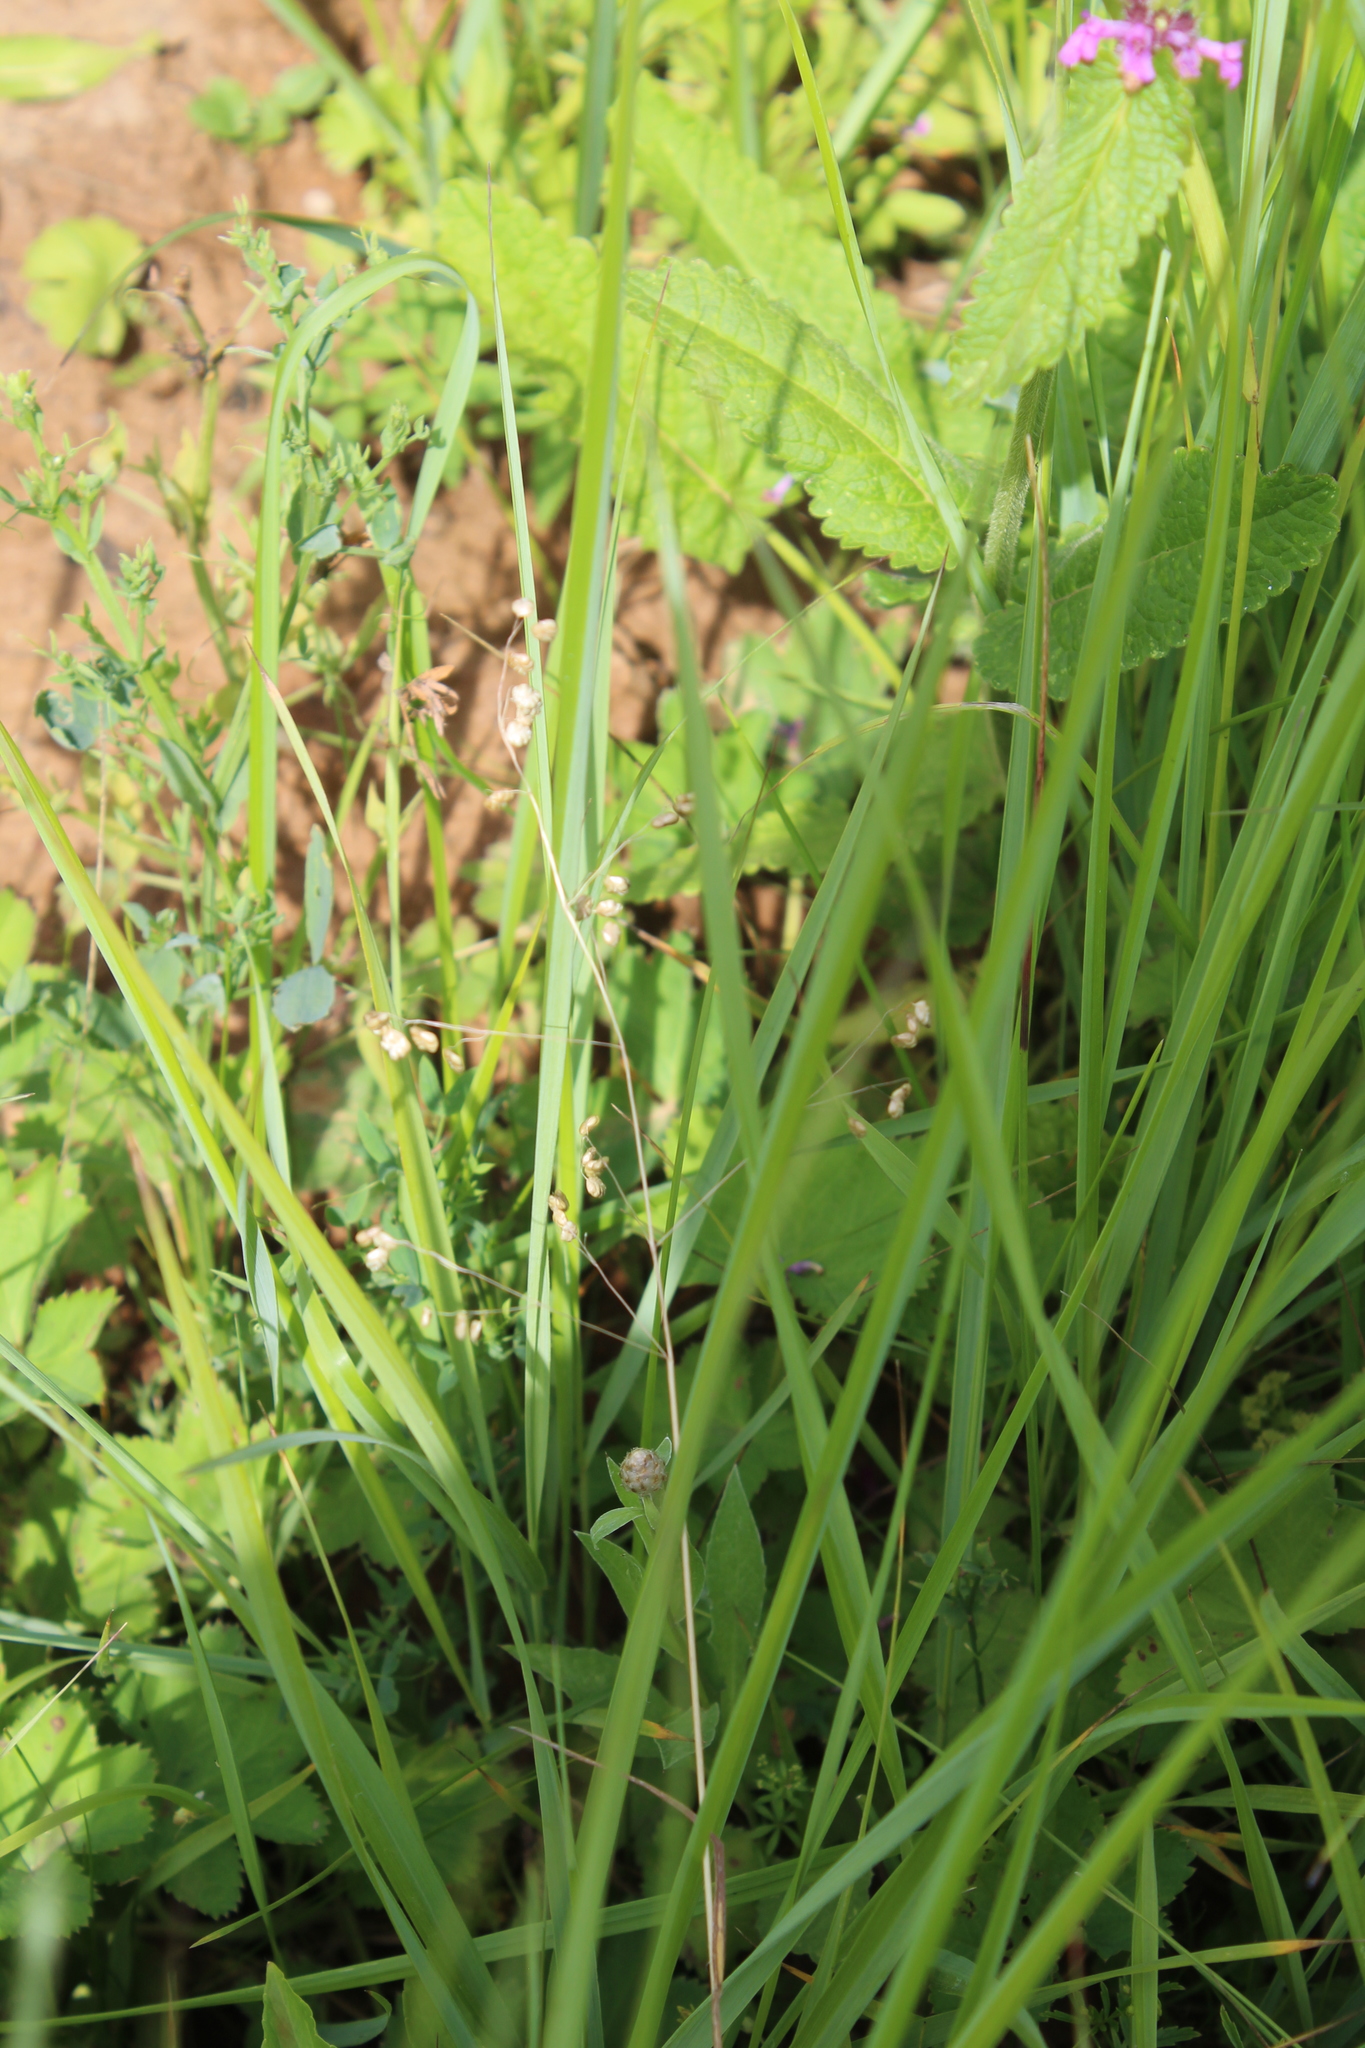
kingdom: Plantae
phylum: Tracheophyta
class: Liliopsida
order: Poales
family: Poaceae
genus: Briza
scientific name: Briza media
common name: Quaking grass
